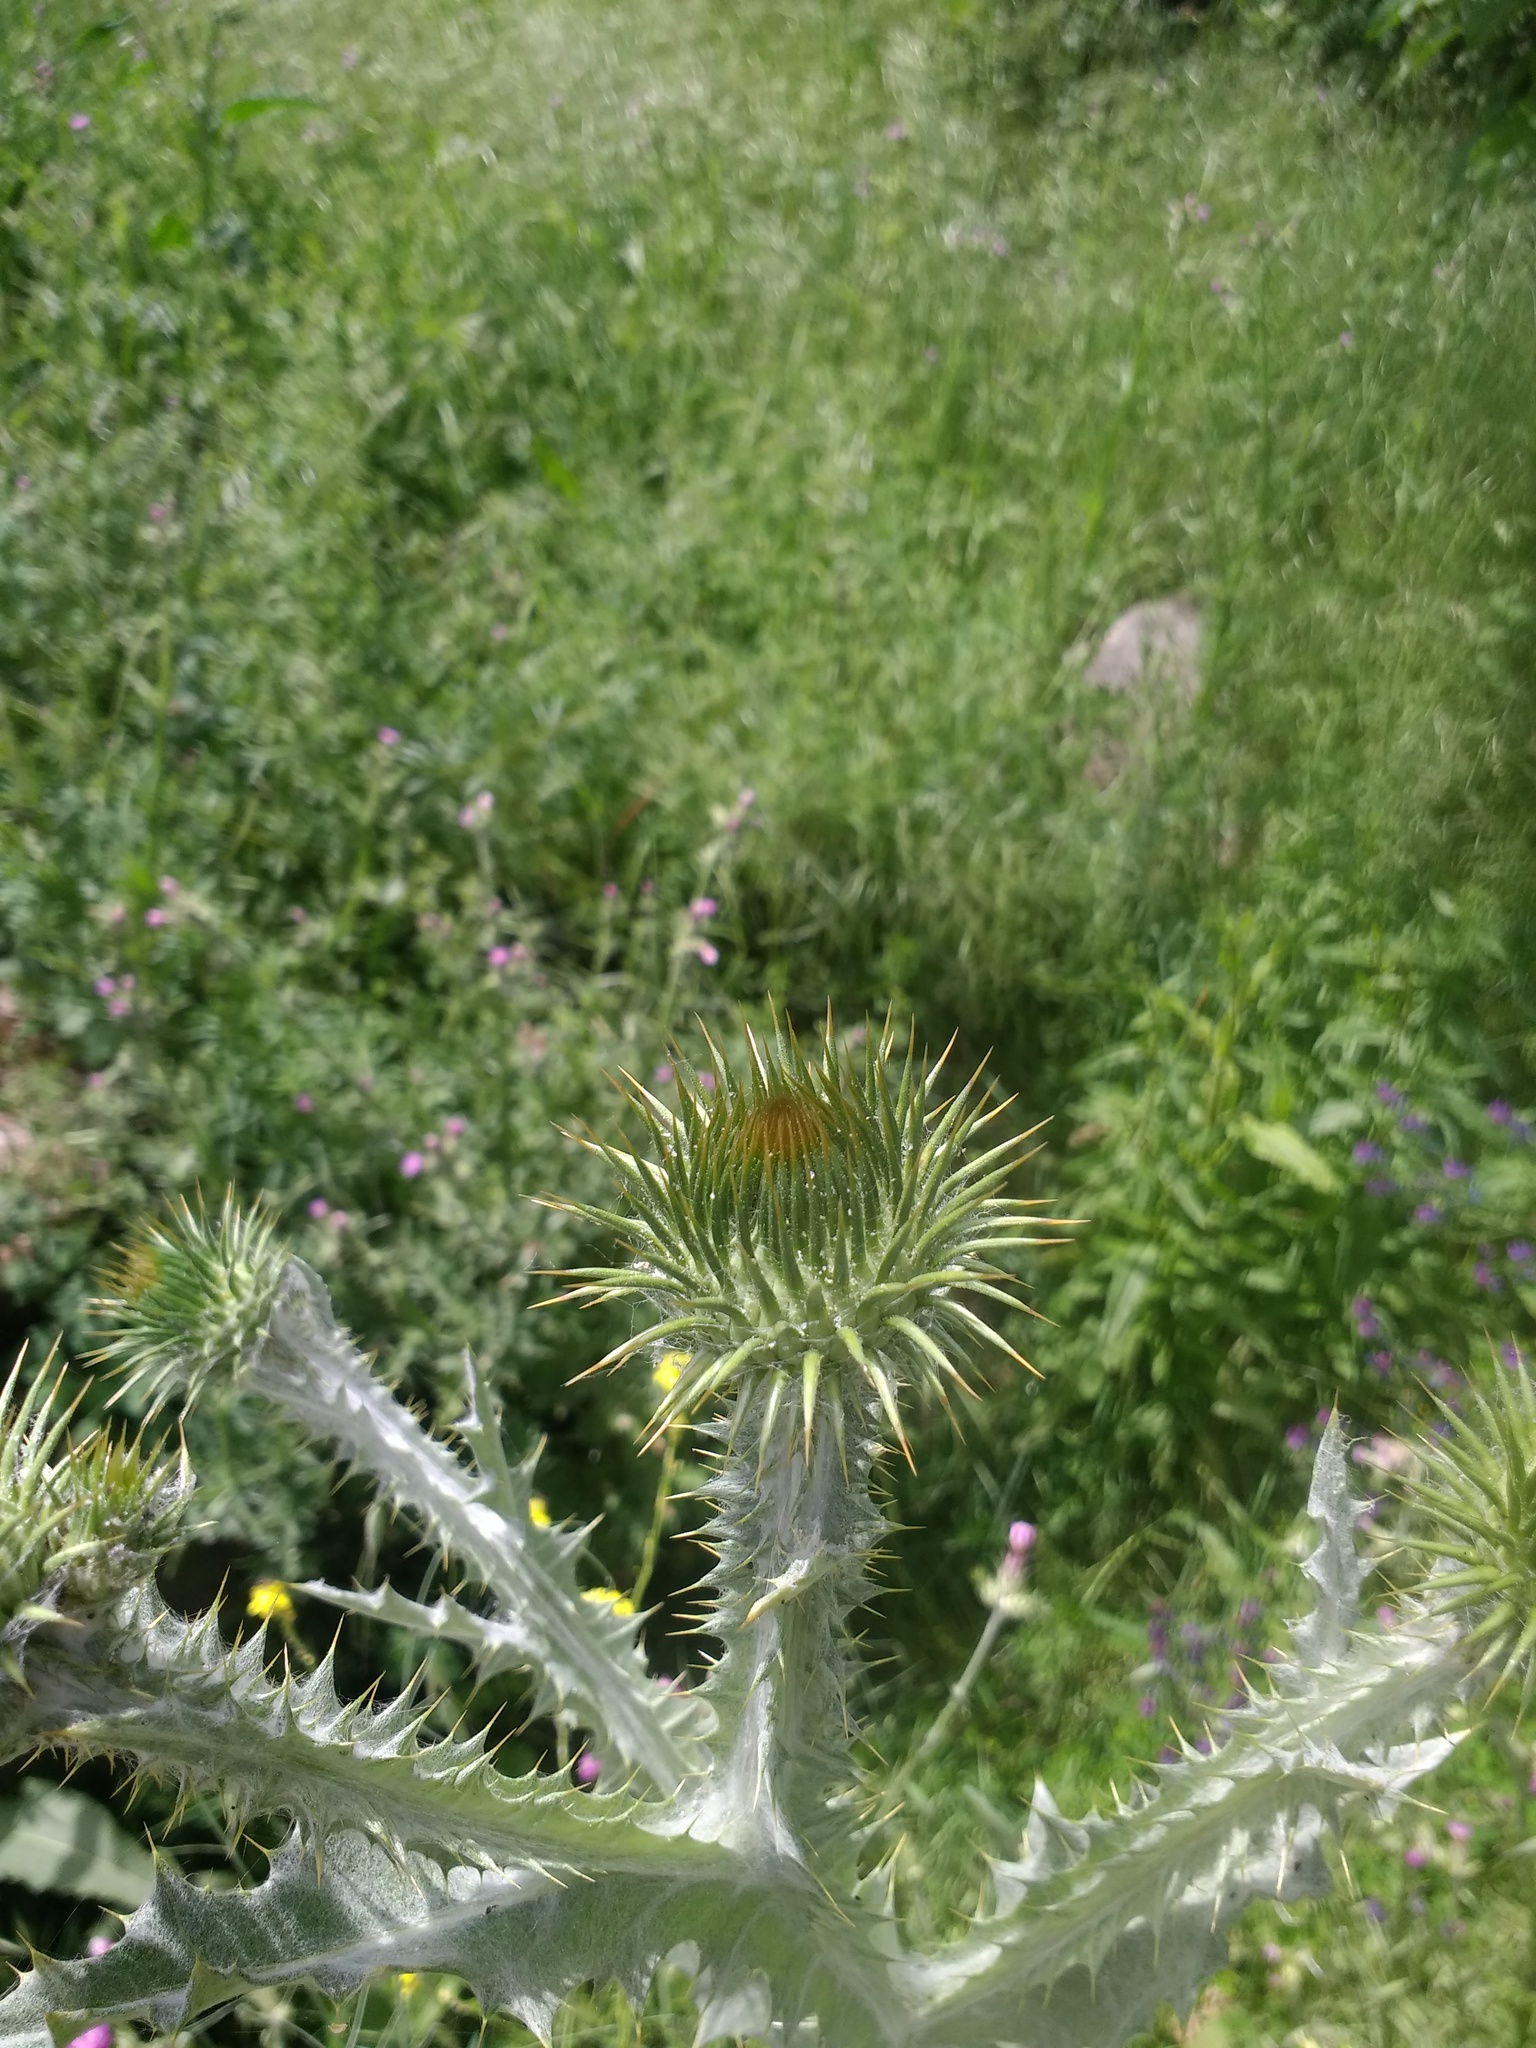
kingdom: Plantae
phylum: Tracheophyta
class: Magnoliopsida
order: Asterales
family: Asteraceae
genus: Onopordum
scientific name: Onopordum acanthium
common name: Scotch thistle
